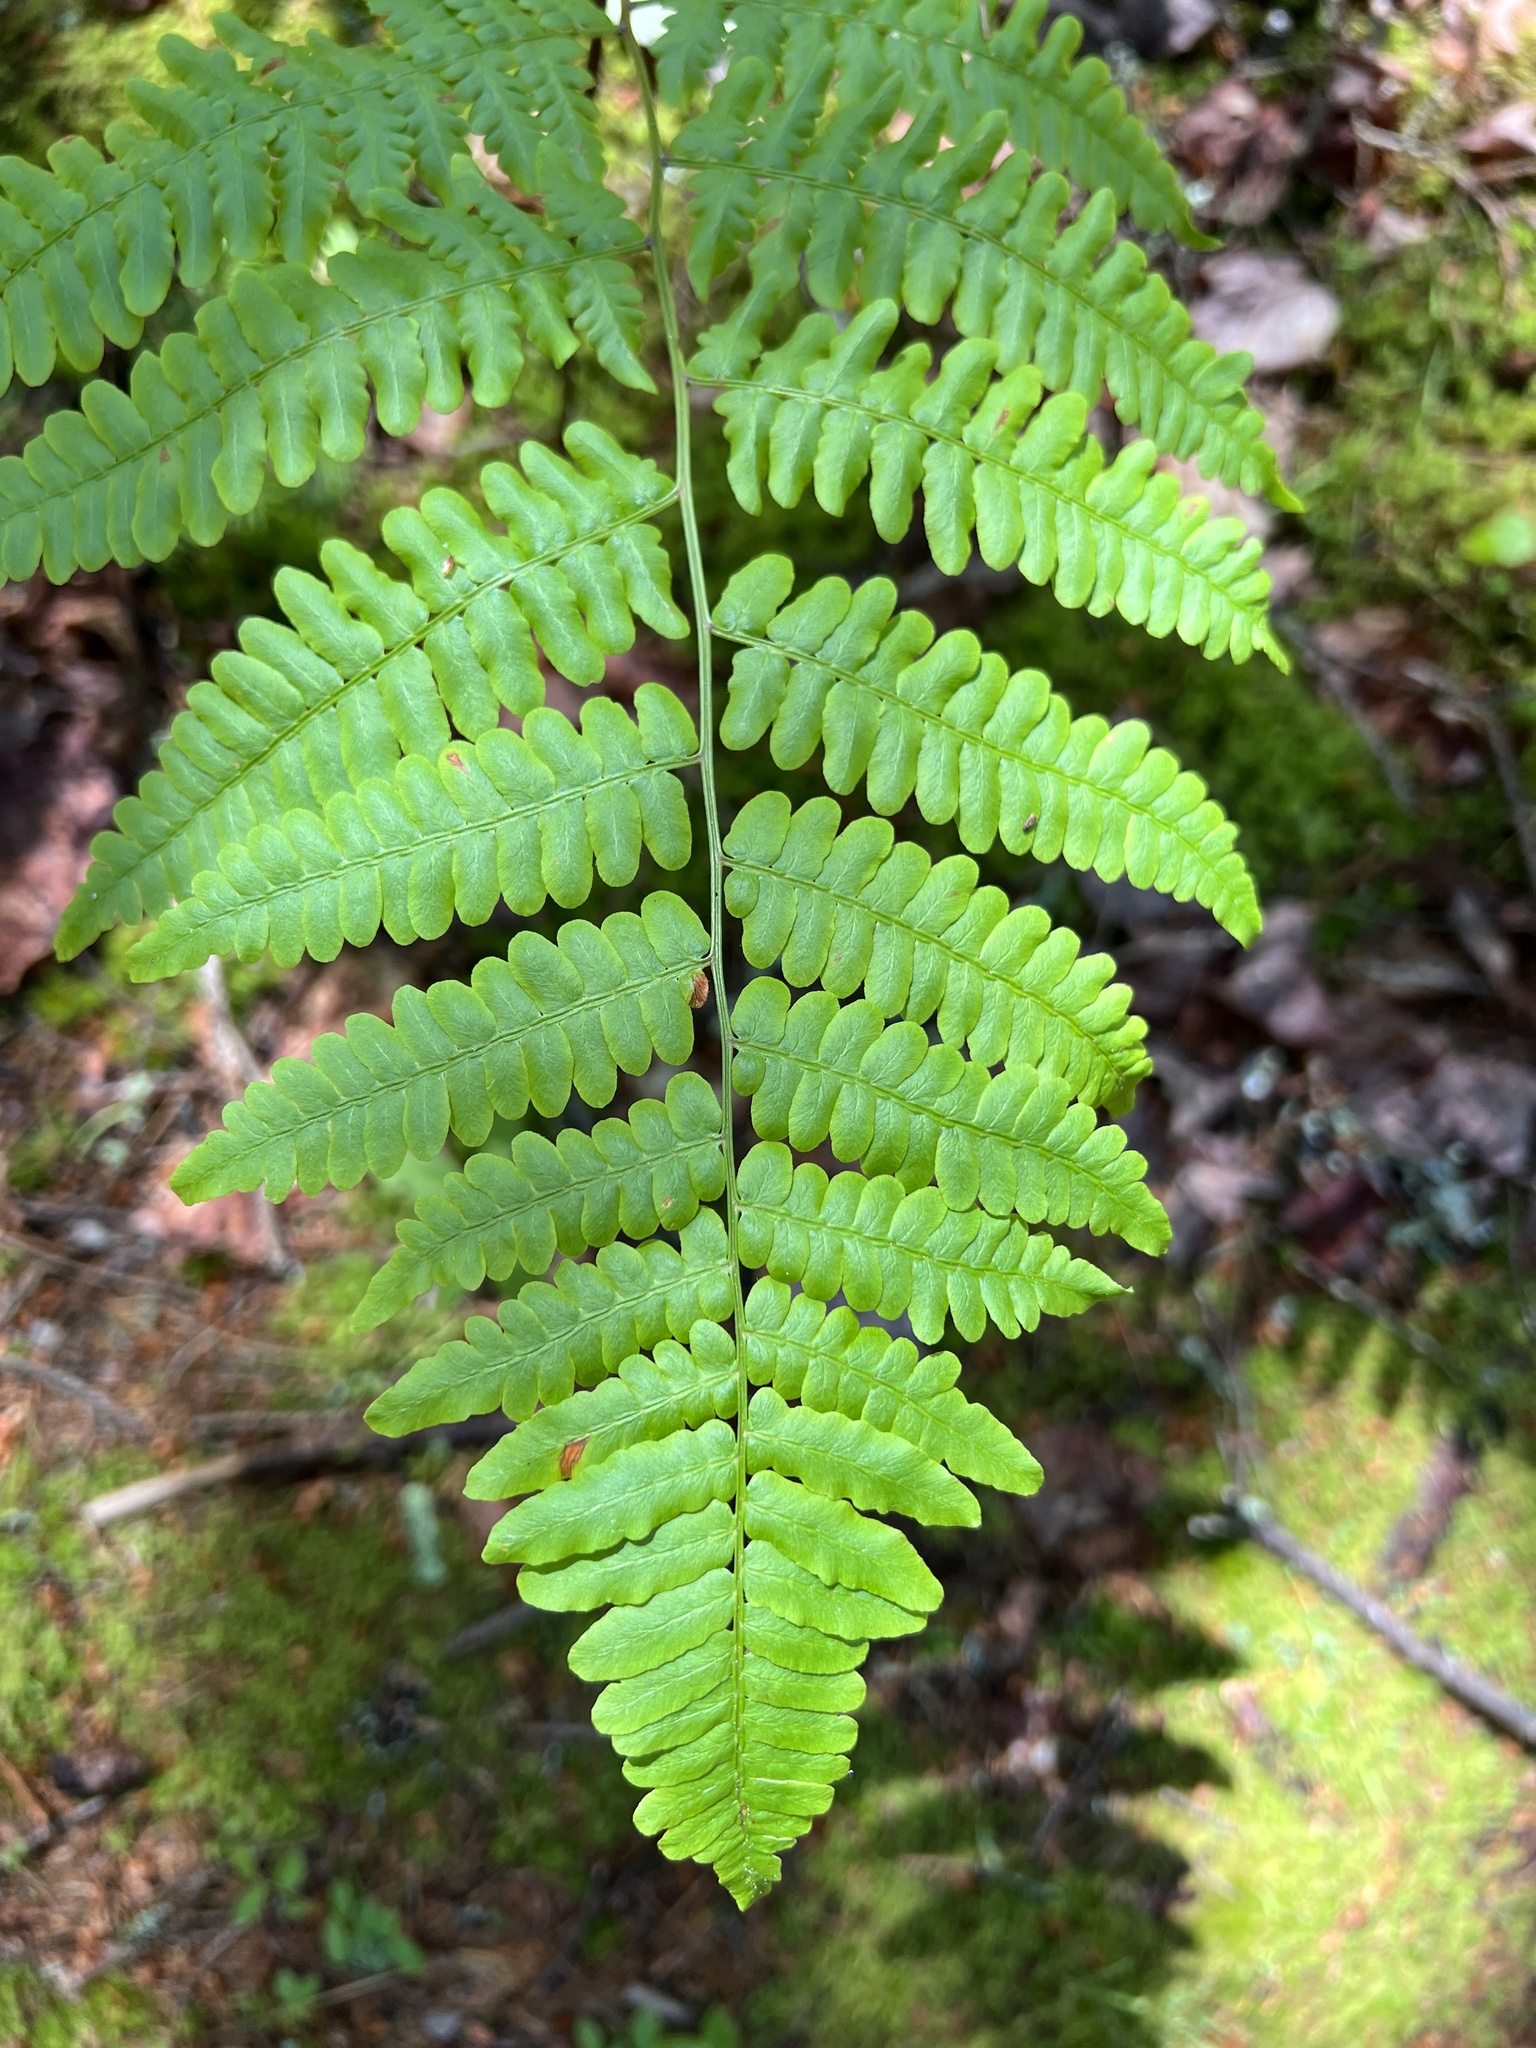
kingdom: Plantae
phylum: Tracheophyta
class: Polypodiopsida
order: Polypodiales
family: Dennstaedtiaceae
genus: Pteridium
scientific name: Pteridium aquilinum
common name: Bracken
